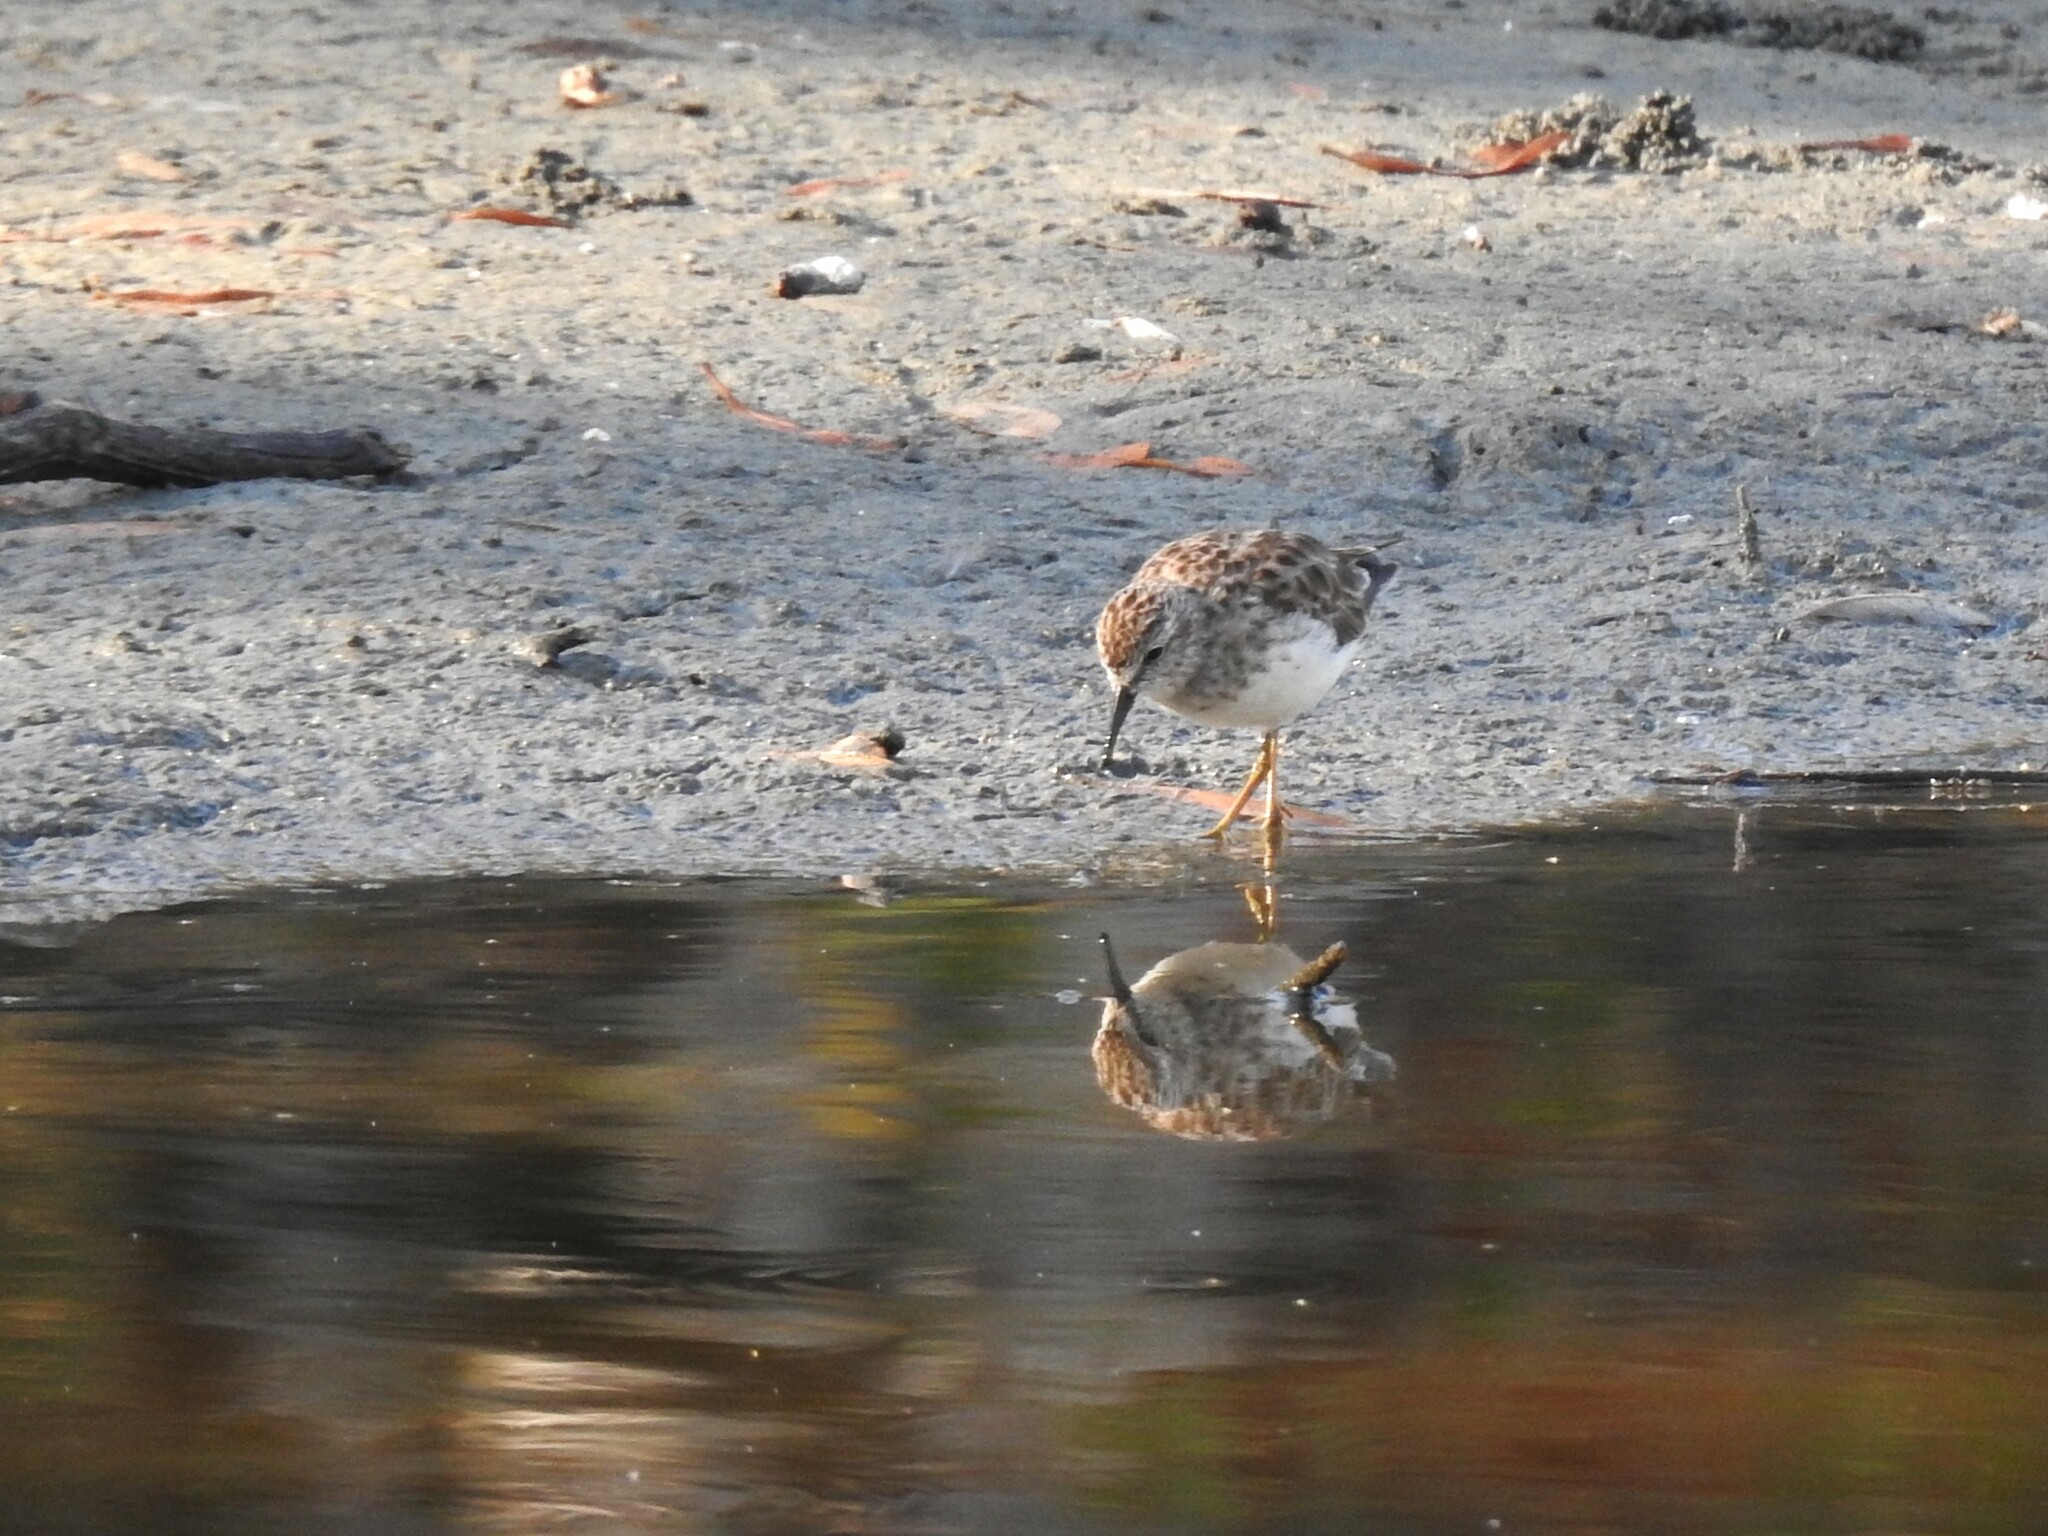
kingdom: Animalia
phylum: Chordata
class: Aves
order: Charadriiformes
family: Scolopacidae
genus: Calidris
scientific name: Calidris minutilla
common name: Least sandpiper
